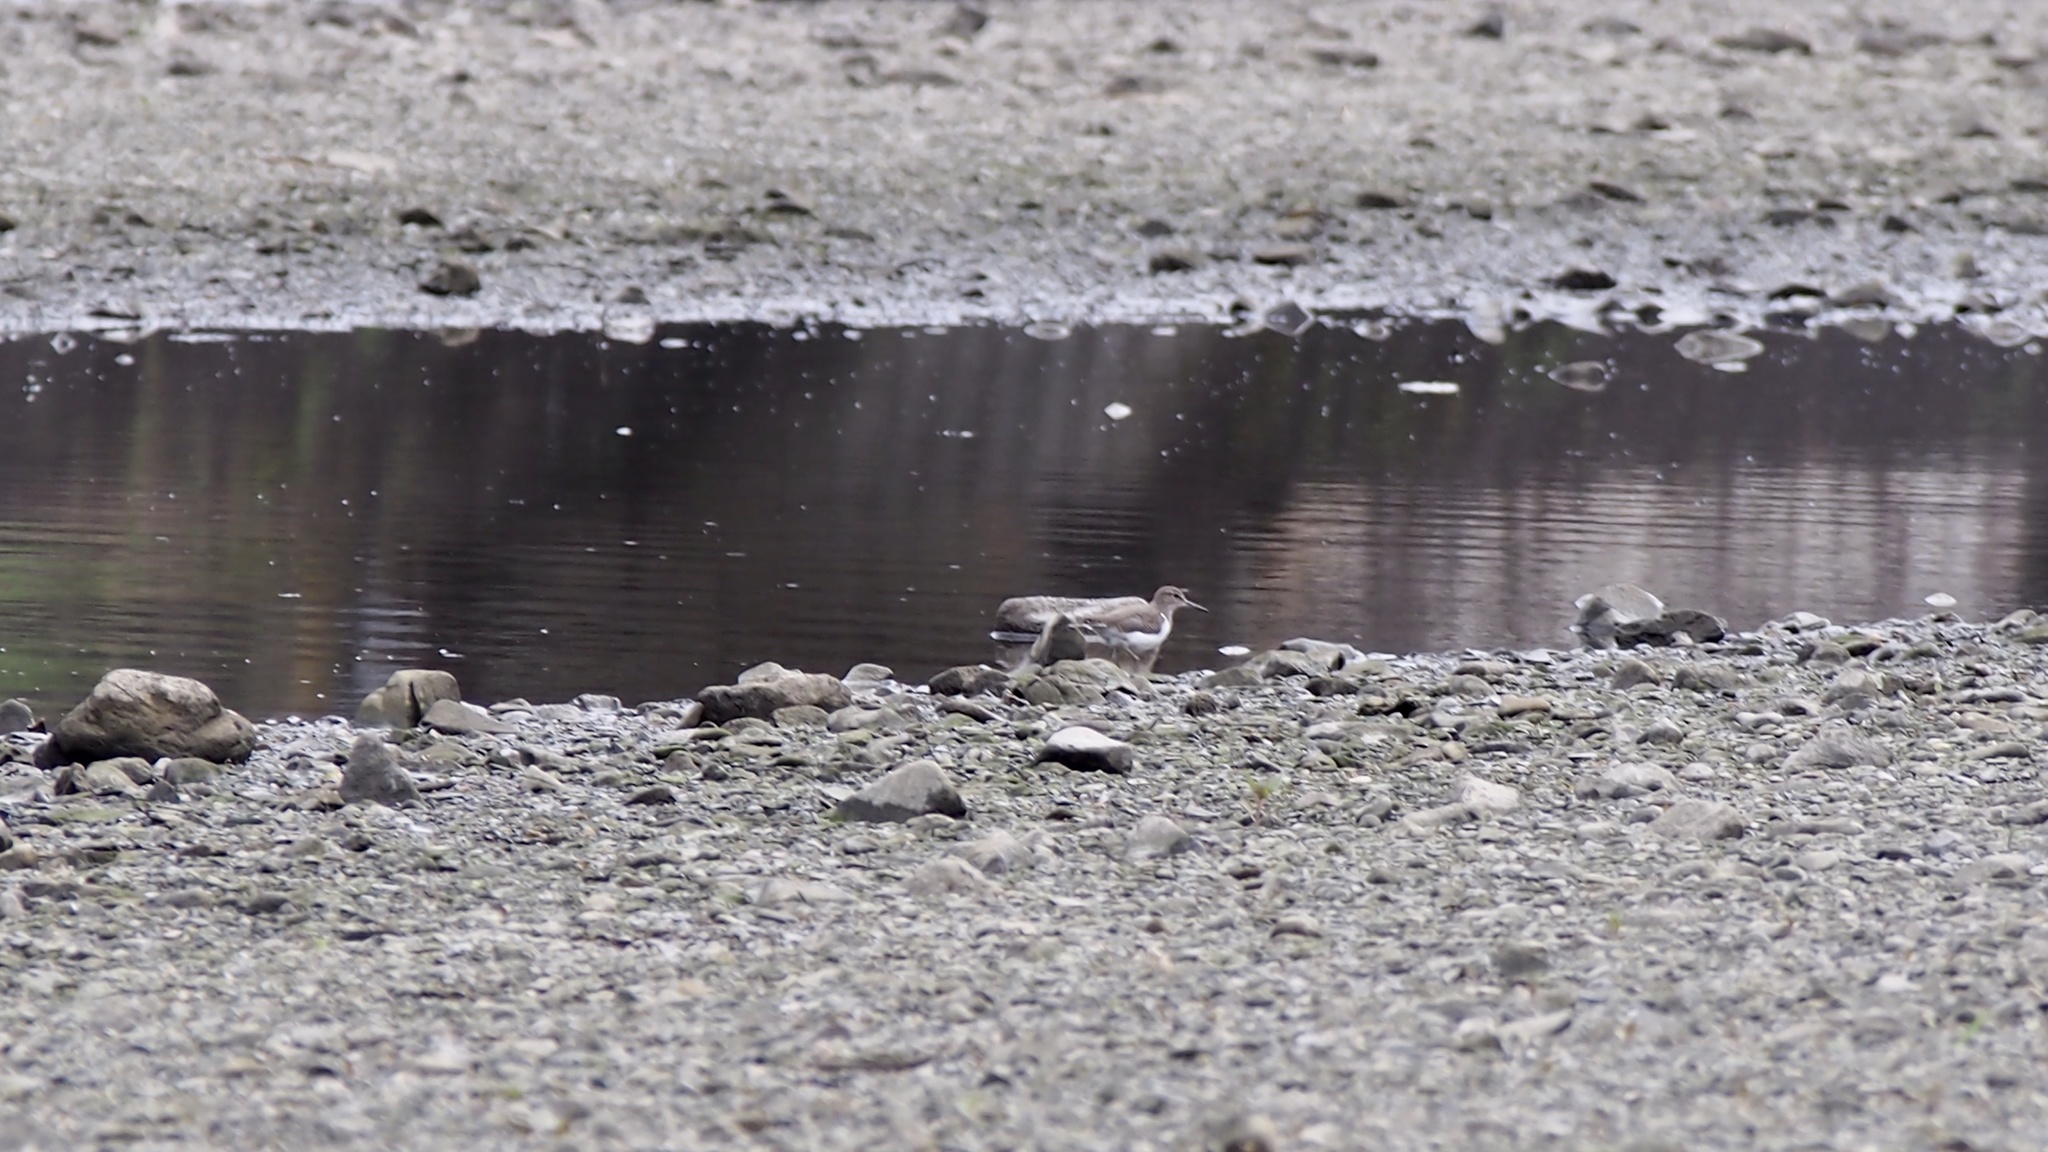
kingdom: Animalia
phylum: Chordata
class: Aves
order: Charadriiformes
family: Scolopacidae
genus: Actitis
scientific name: Actitis hypoleucos
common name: Common sandpiper
